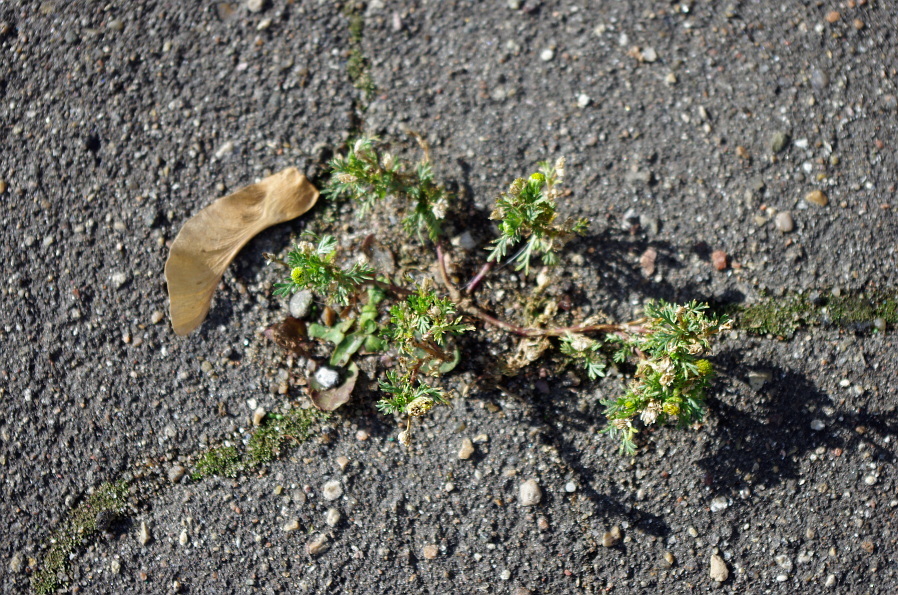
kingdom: Plantae
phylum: Tracheophyta
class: Magnoliopsida
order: Asterales
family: Asteraceae
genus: Matricaria
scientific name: Matricaria discoidea
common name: Disc mayweed
